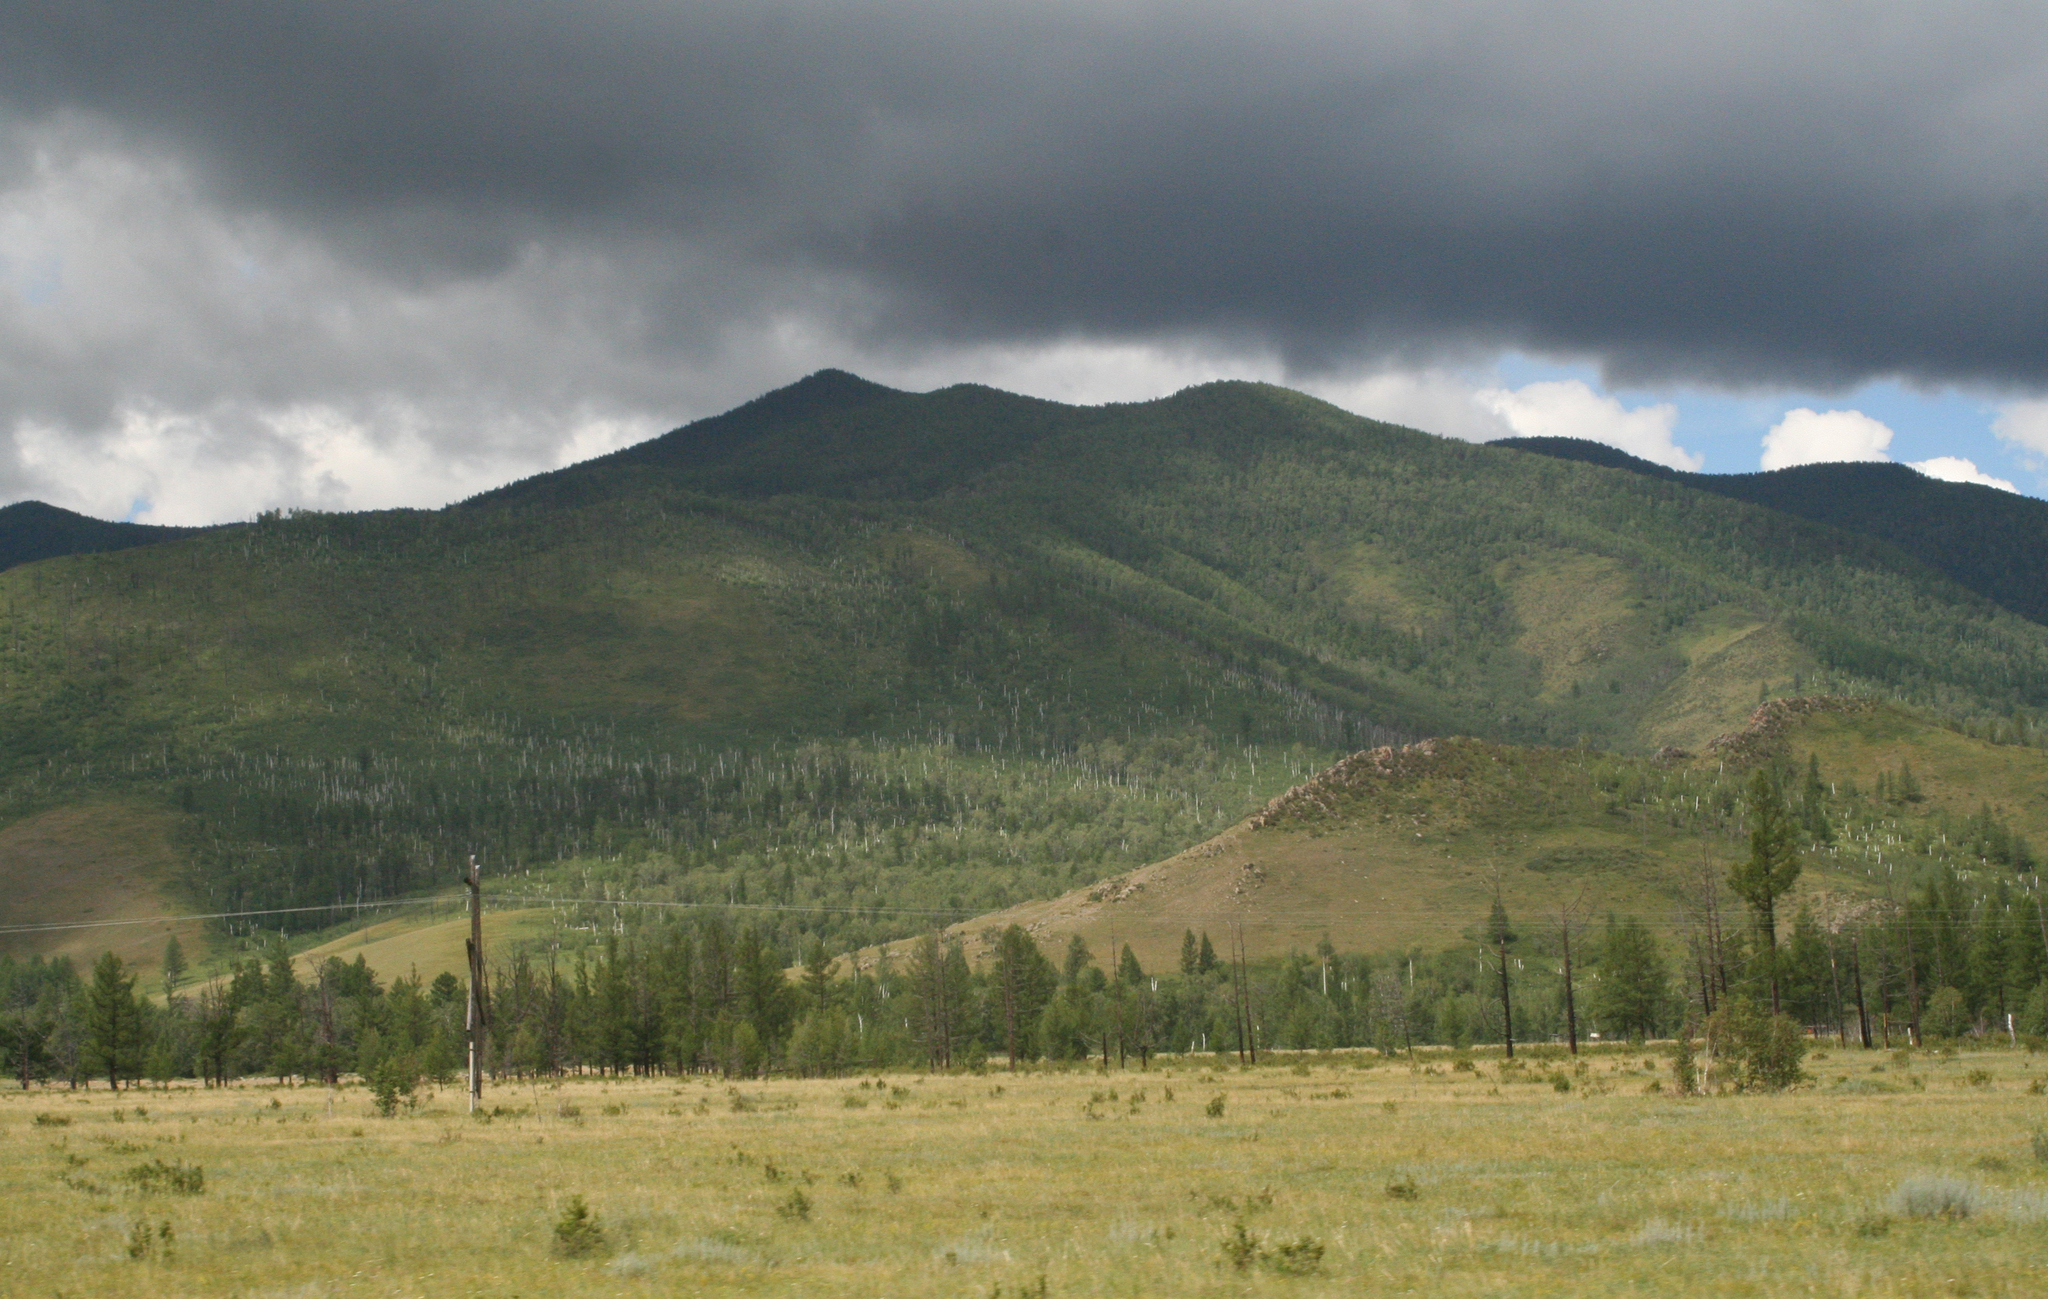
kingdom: Plantae
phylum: Tracheophyta
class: Pinopsida
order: Pinales
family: Pinaceae
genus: Larix
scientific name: Larix sibirica
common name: Siberian larch
